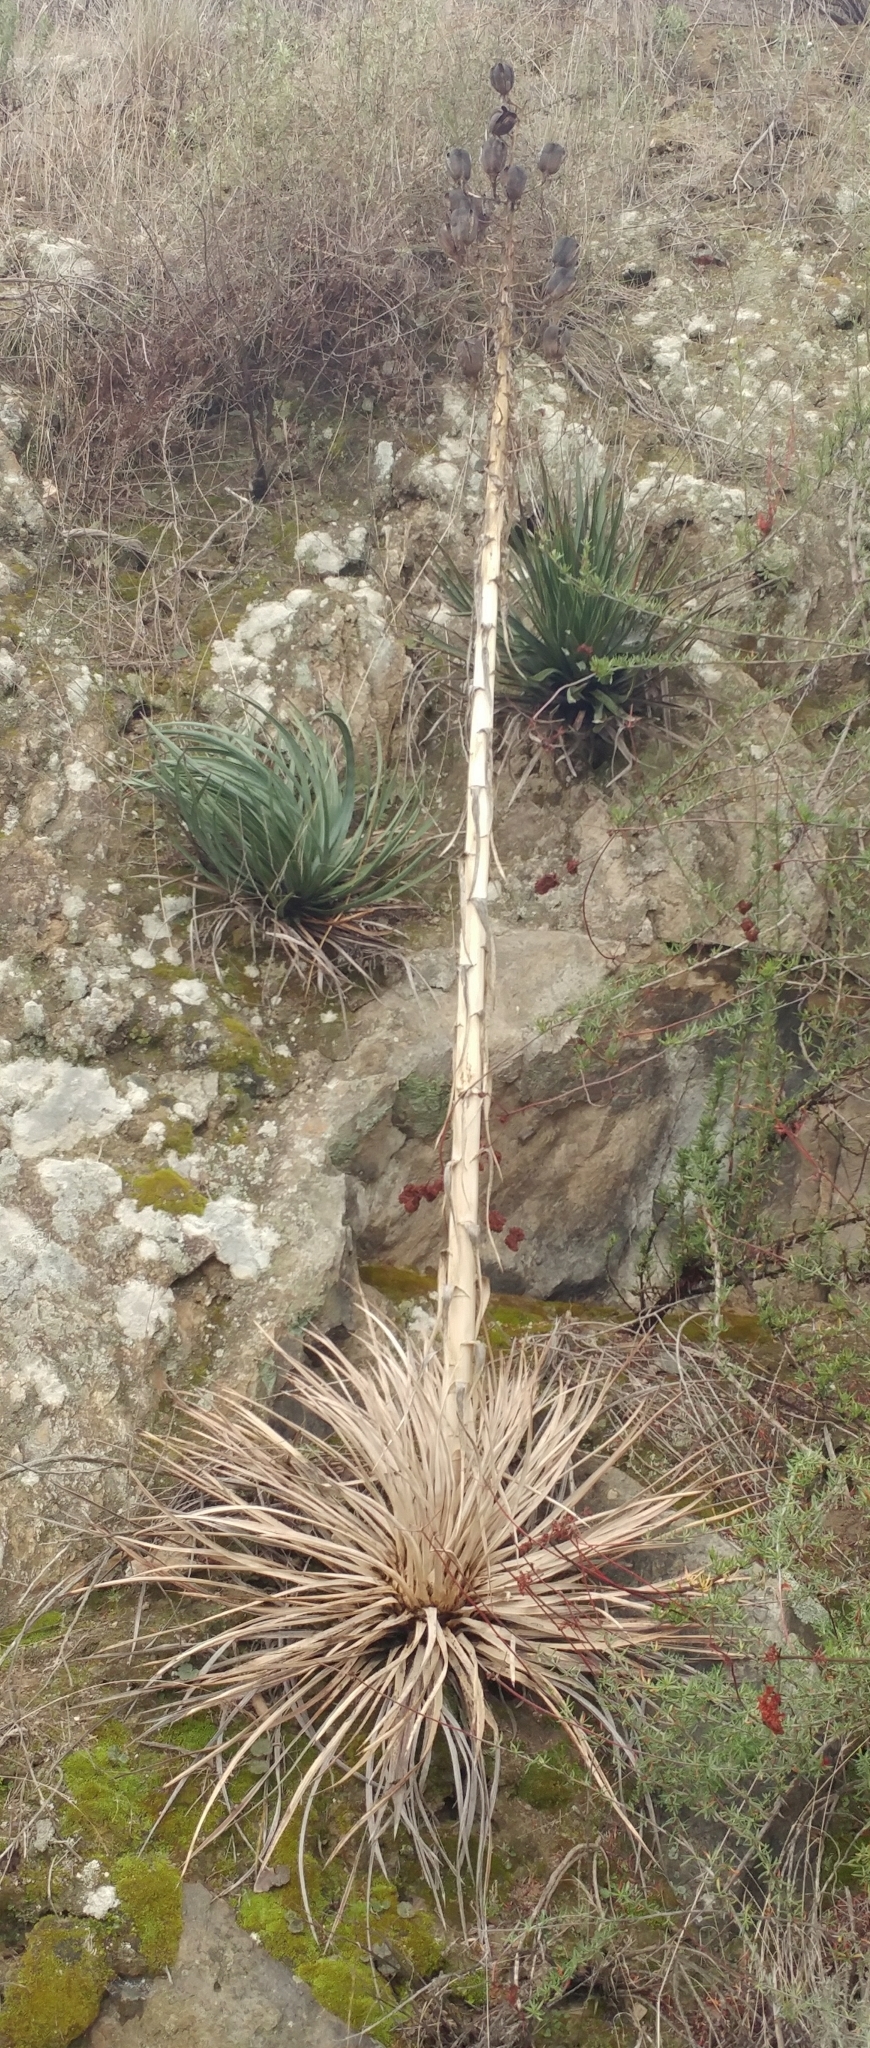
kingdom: Plantae
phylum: Tracheophyta
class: Liliopsida
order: Asparagales
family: Asparagaceae
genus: Hesperoyucca
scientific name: Hesperoyucca whipplei
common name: Our lord's-candle
